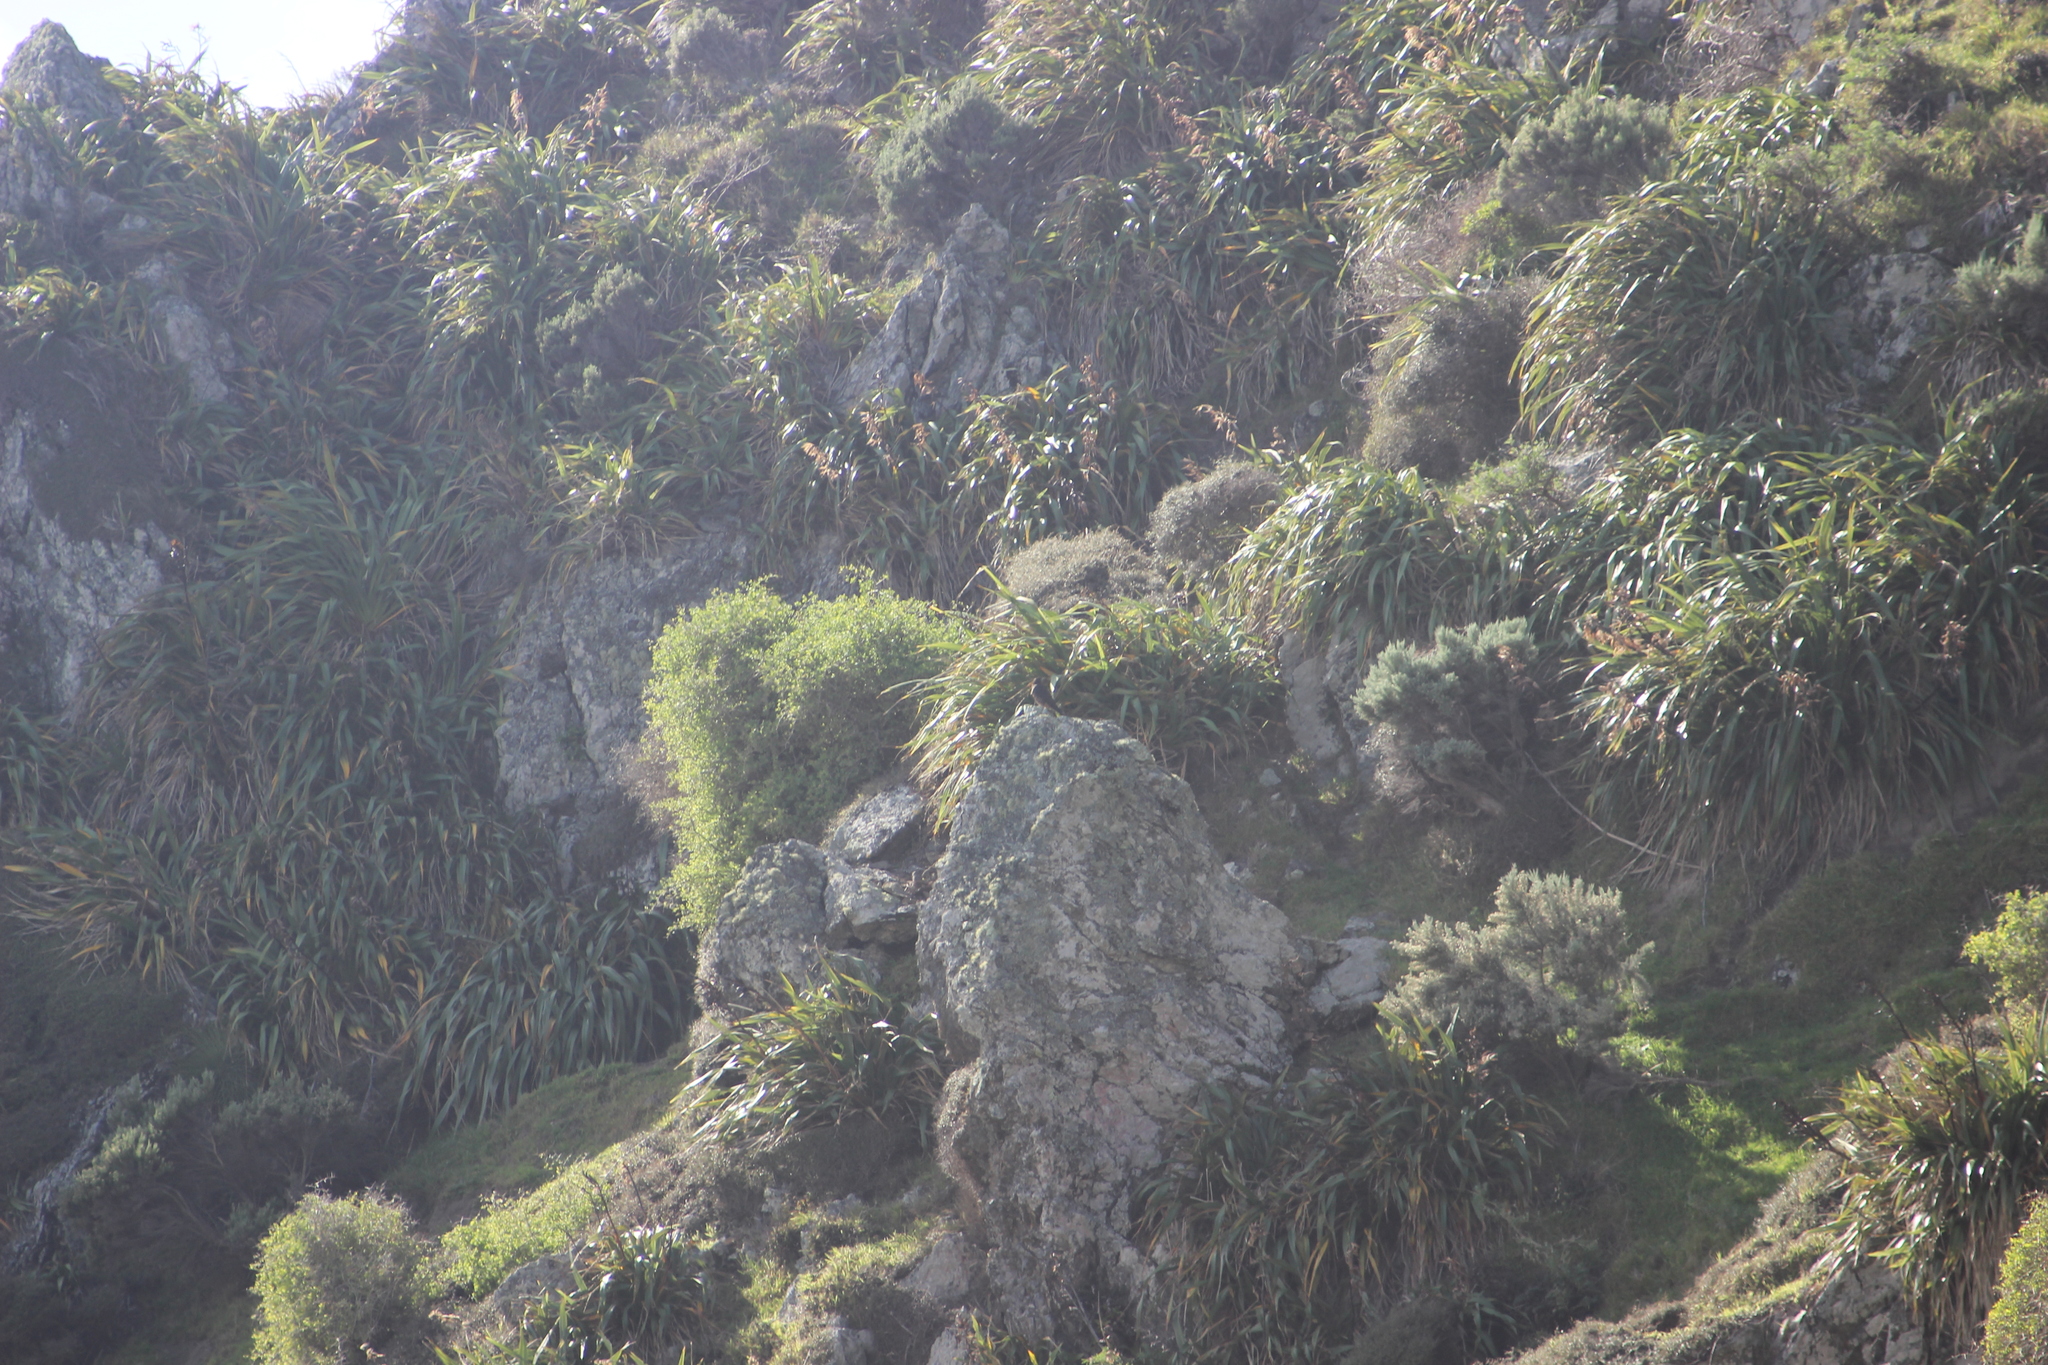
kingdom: Animalia
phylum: Chordata
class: Aves
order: Falconiformes
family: Falconidae
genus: Falco
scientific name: Falco novaeseelandiae
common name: New zealand falcon
